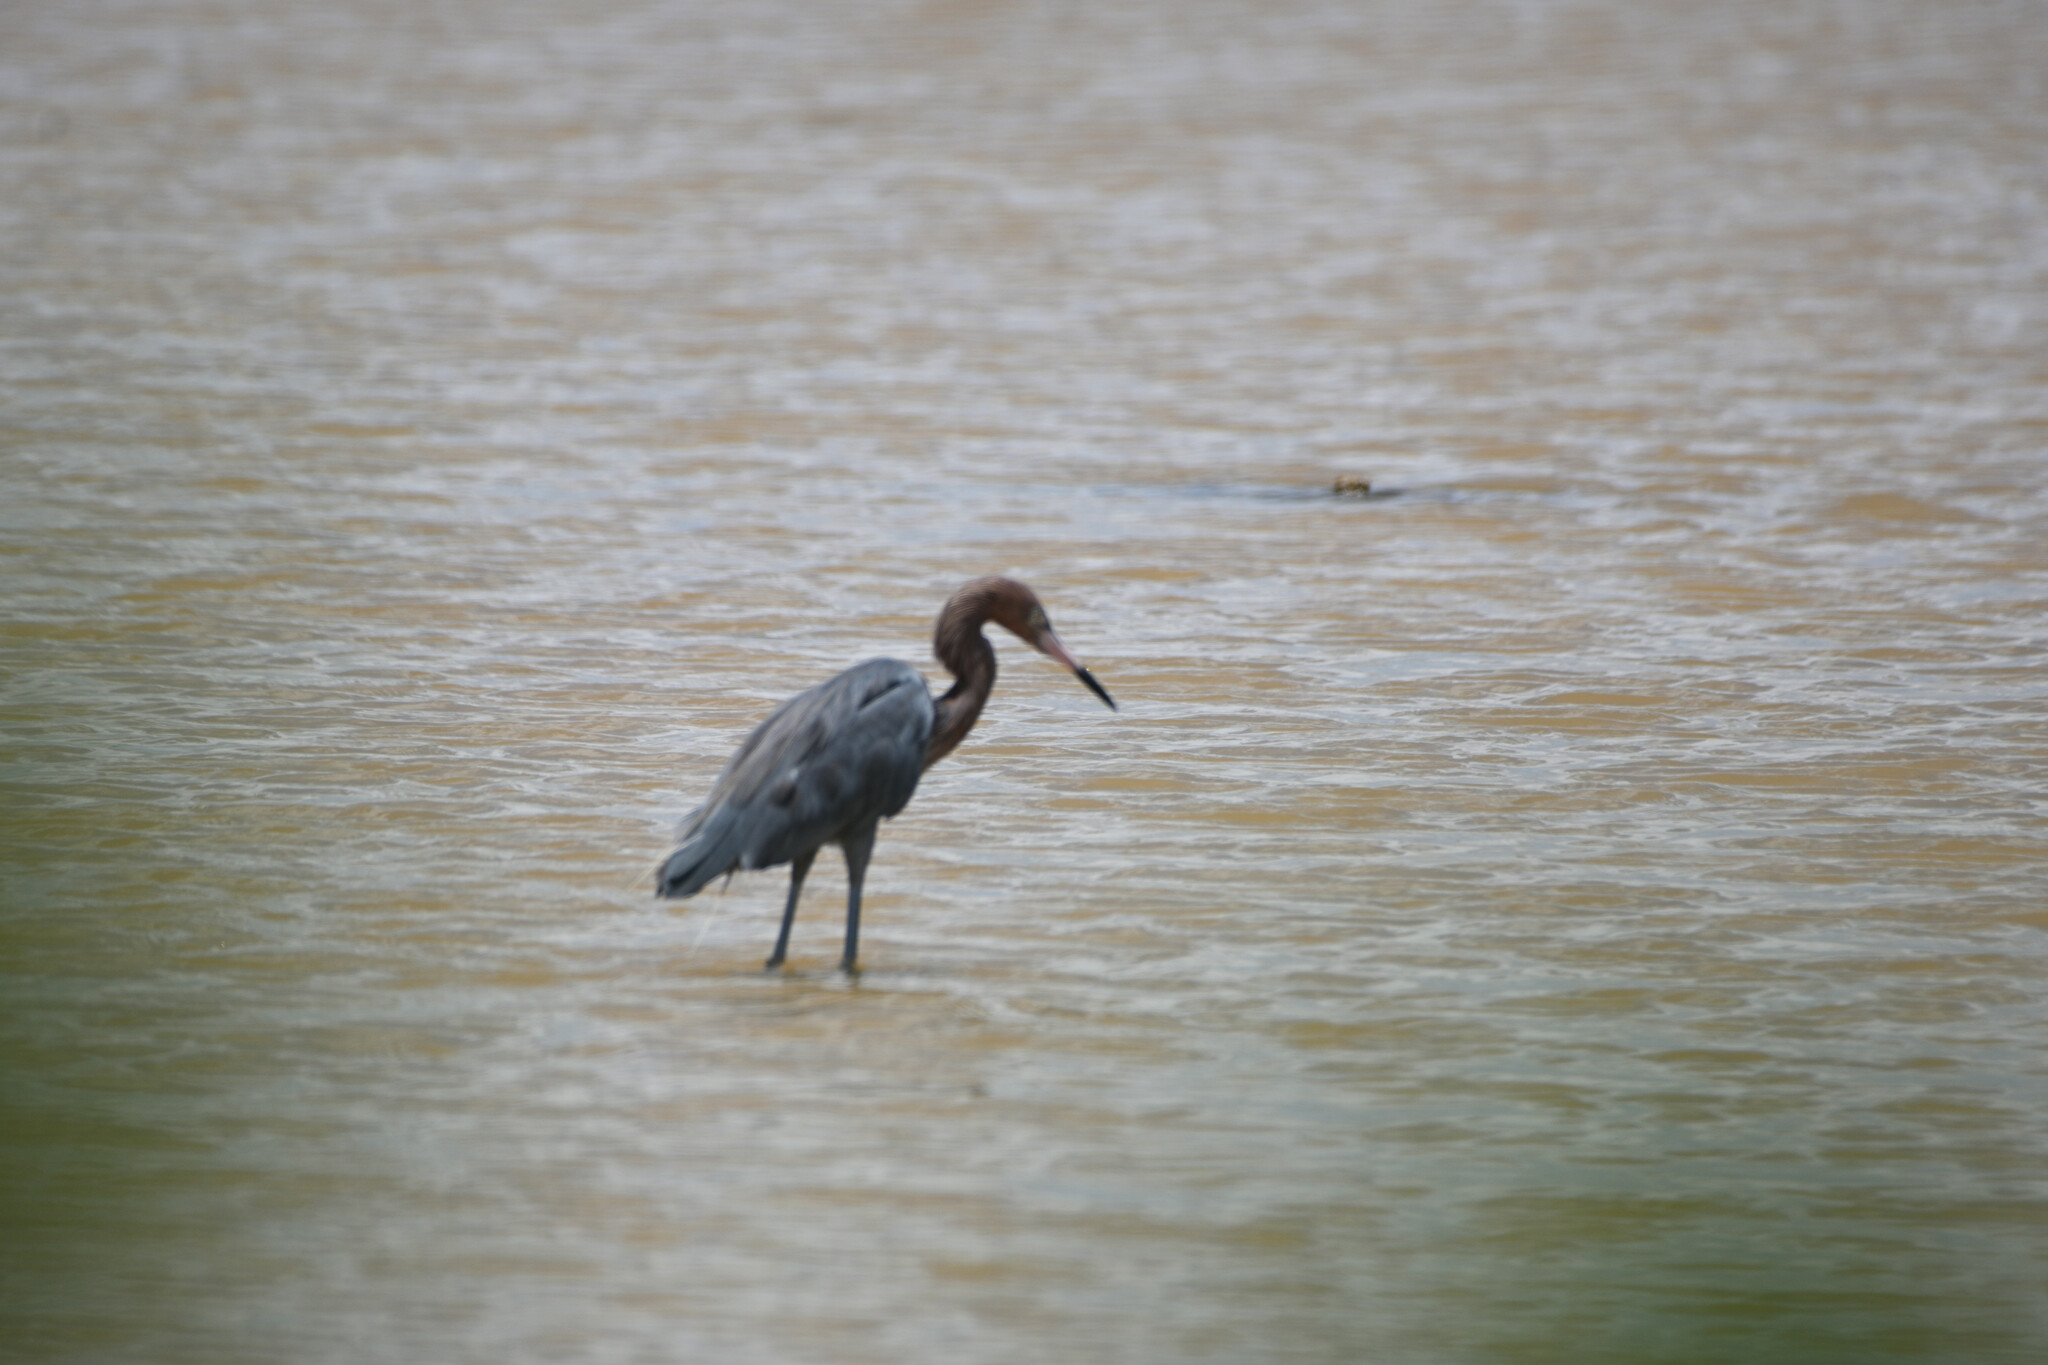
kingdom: Animalia
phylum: Chordata
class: Aves
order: Pelecaniformes
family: Ardeidae
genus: Egretta
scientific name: Egretta rufescens
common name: Reddish egret
